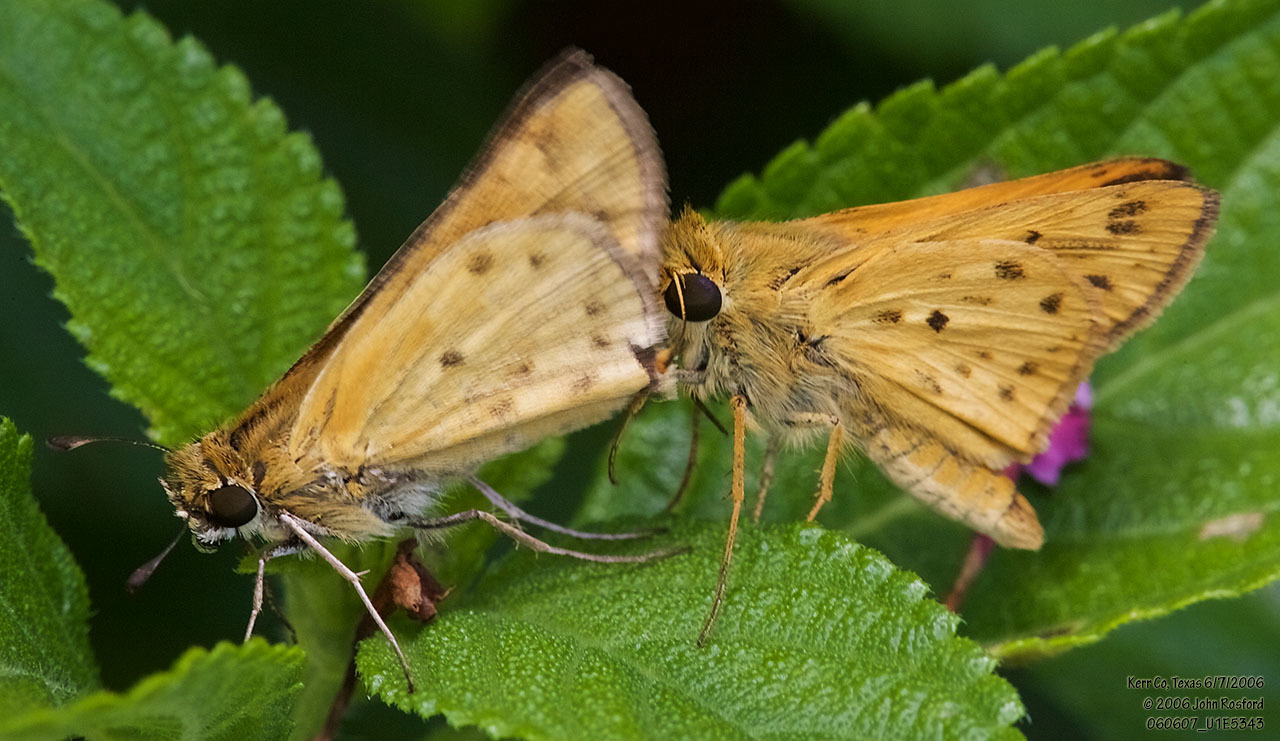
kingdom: Animalia
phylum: Arthropoda
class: Insecta
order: Lepidoptera
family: Hesperiidae
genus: Hylephila
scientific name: Hylephila phyleus
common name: Fiery skipper
